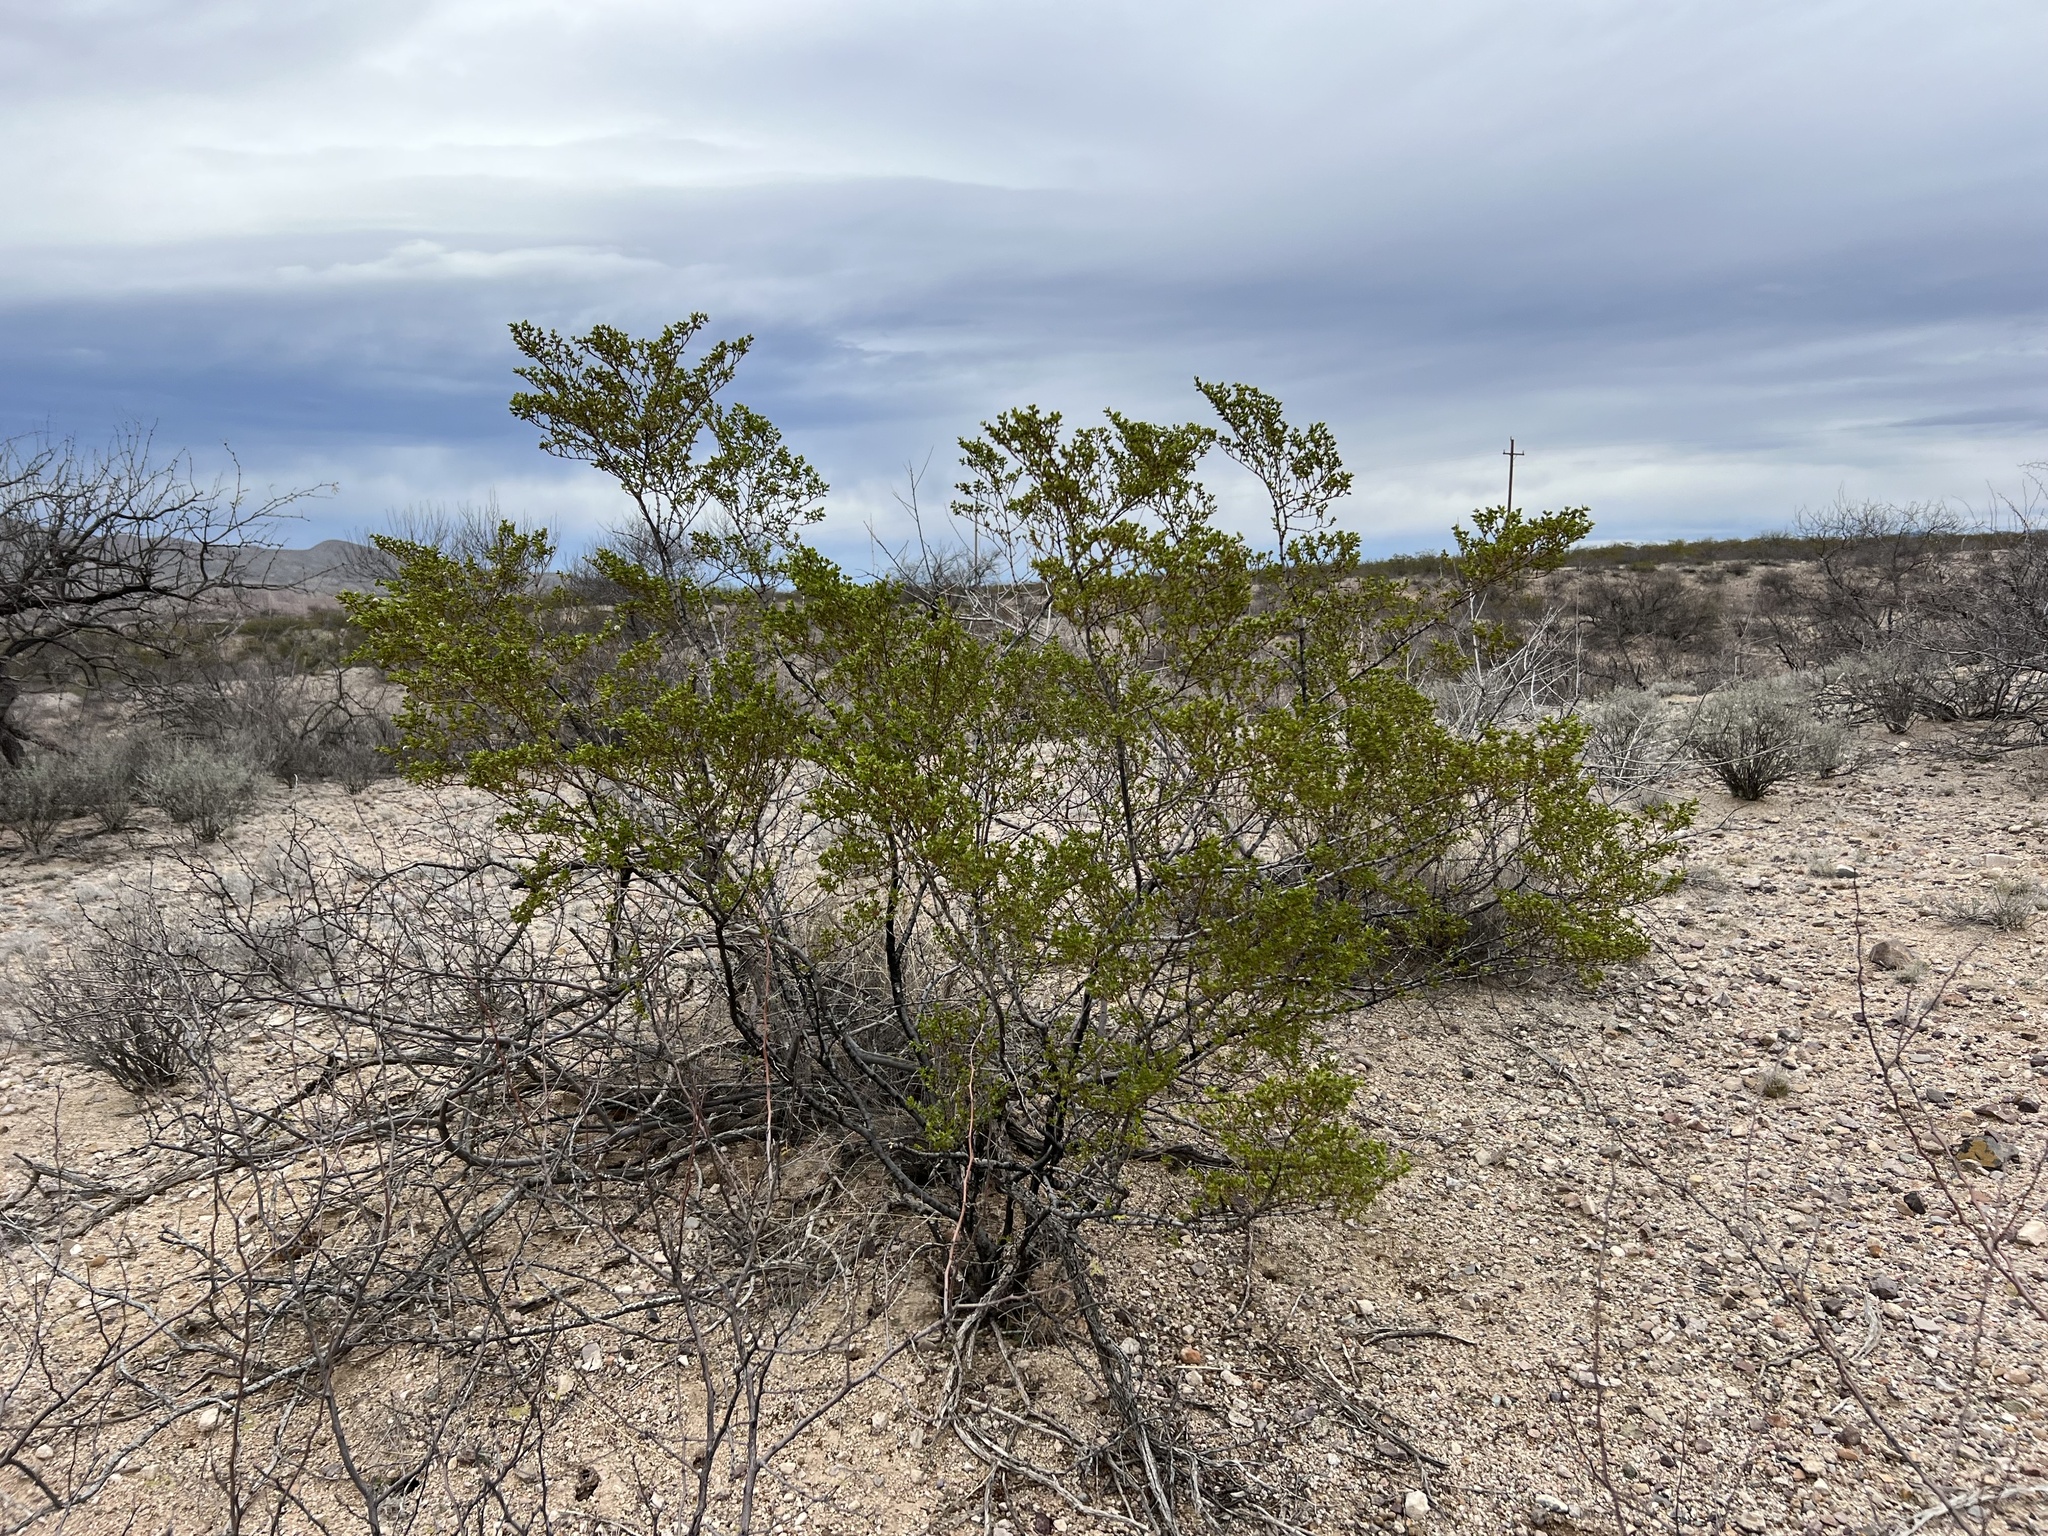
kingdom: Plantae
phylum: Tracheophyta
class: Magnoliopsida
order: Zygophyllales
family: Zygophyllaceae
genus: Larrea
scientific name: Larrea tridentata
